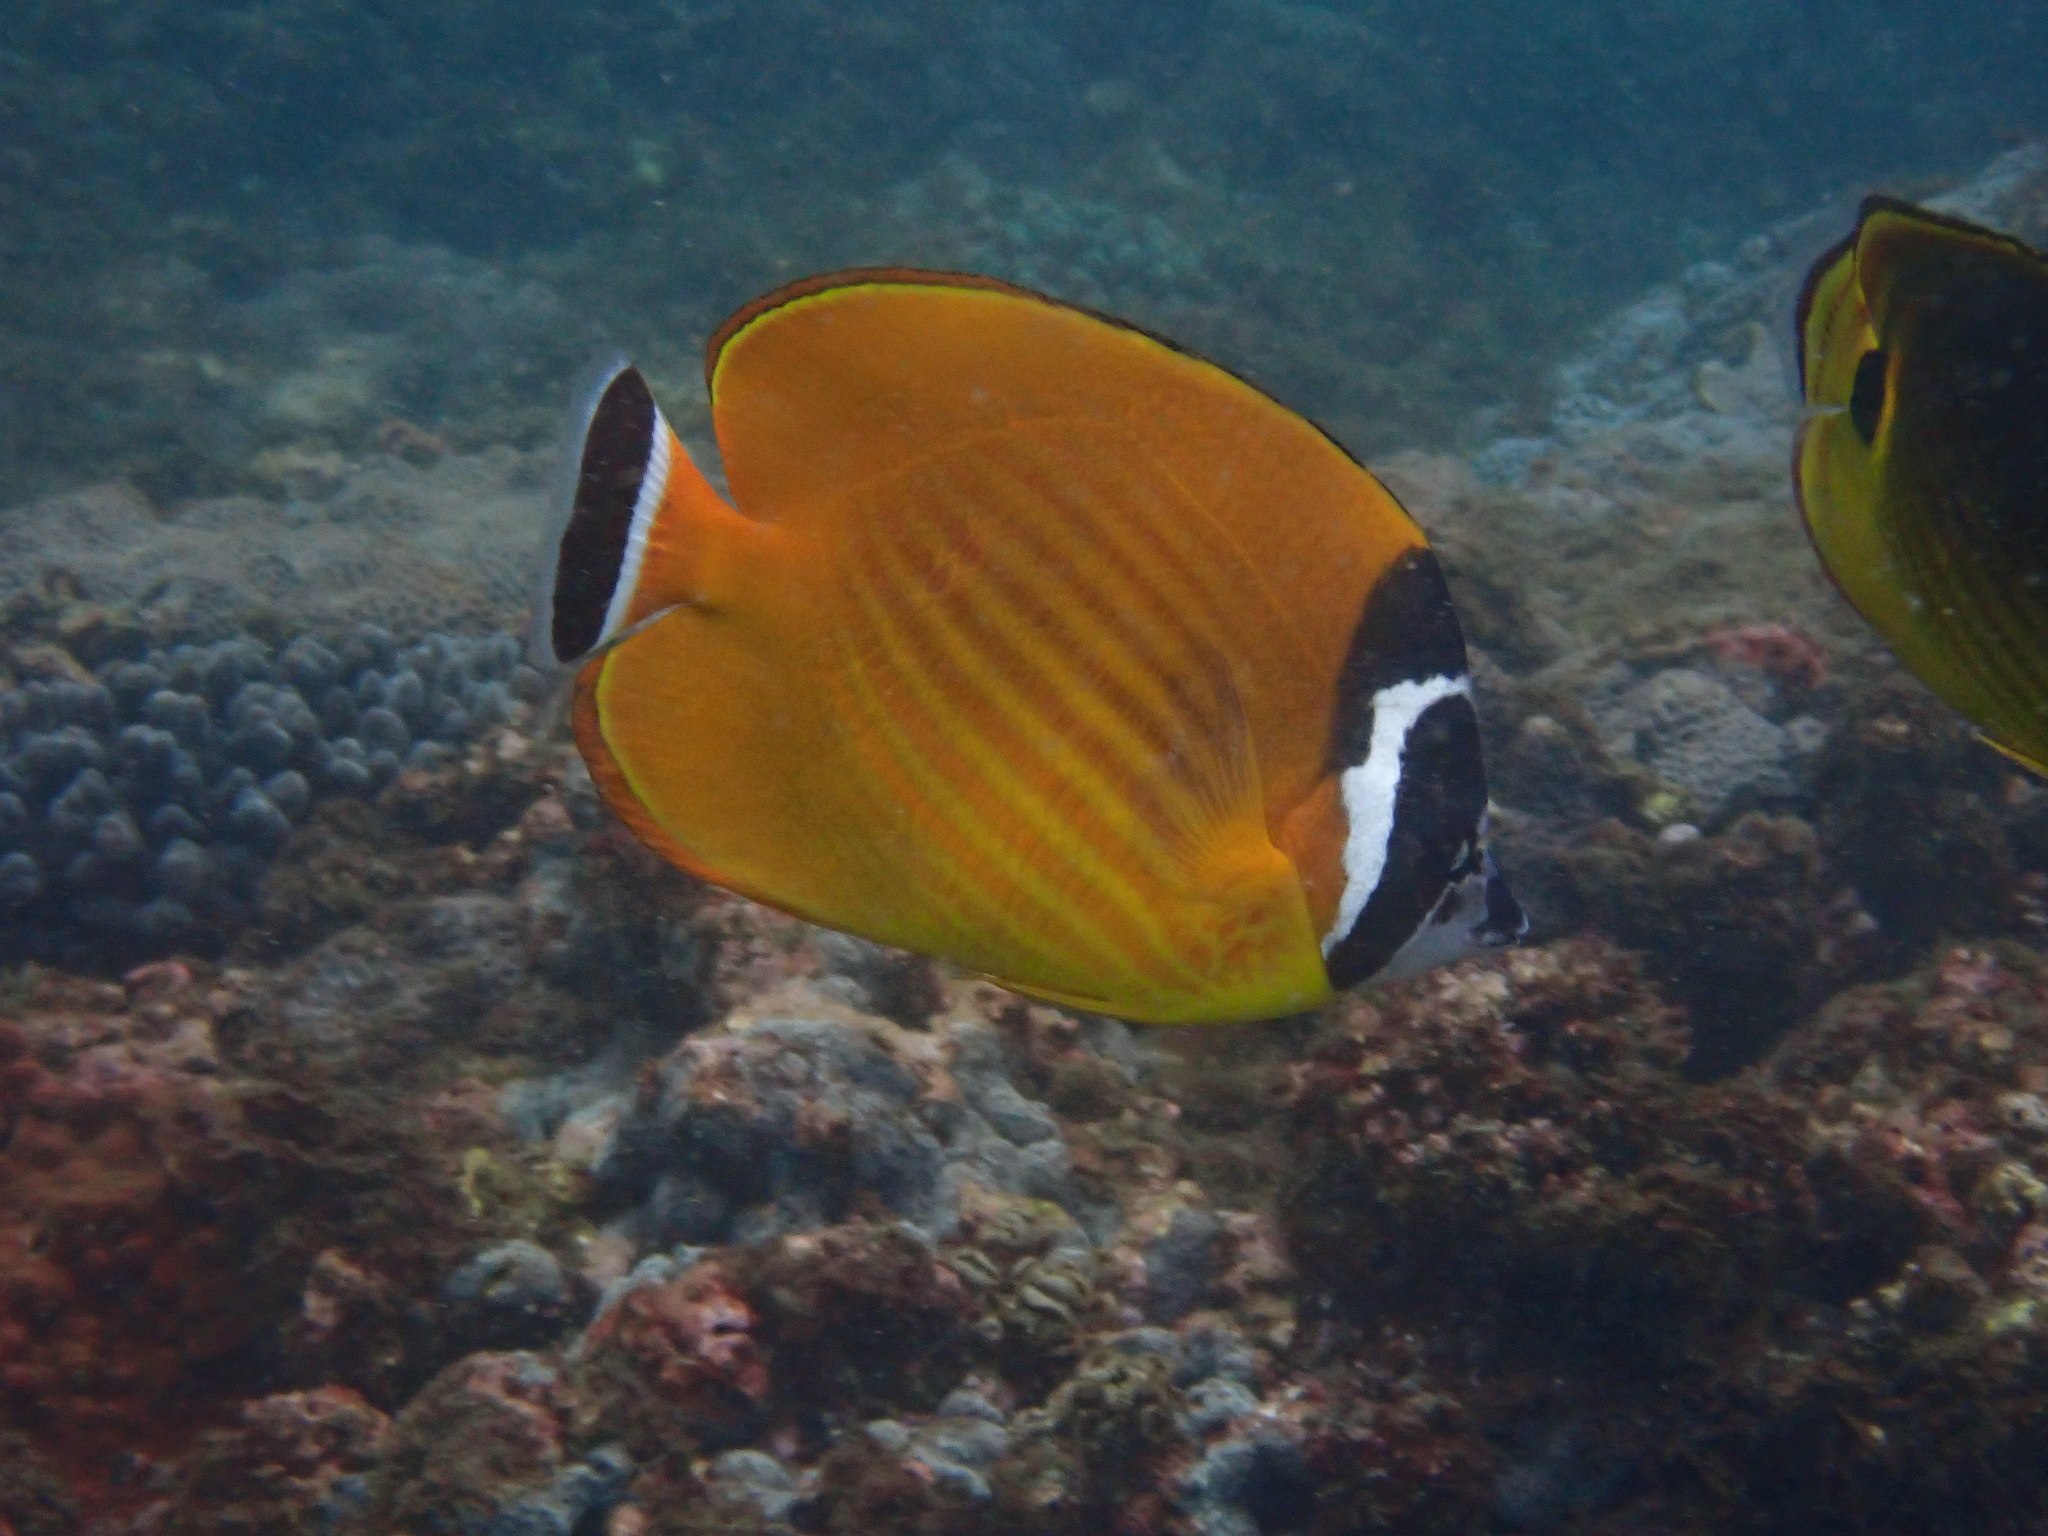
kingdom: Animalia
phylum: Chordata
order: Perciformes
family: Chaetodontidae
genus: Chaetodon
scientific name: Chaetodon wiebeli
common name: Butterflyfish
